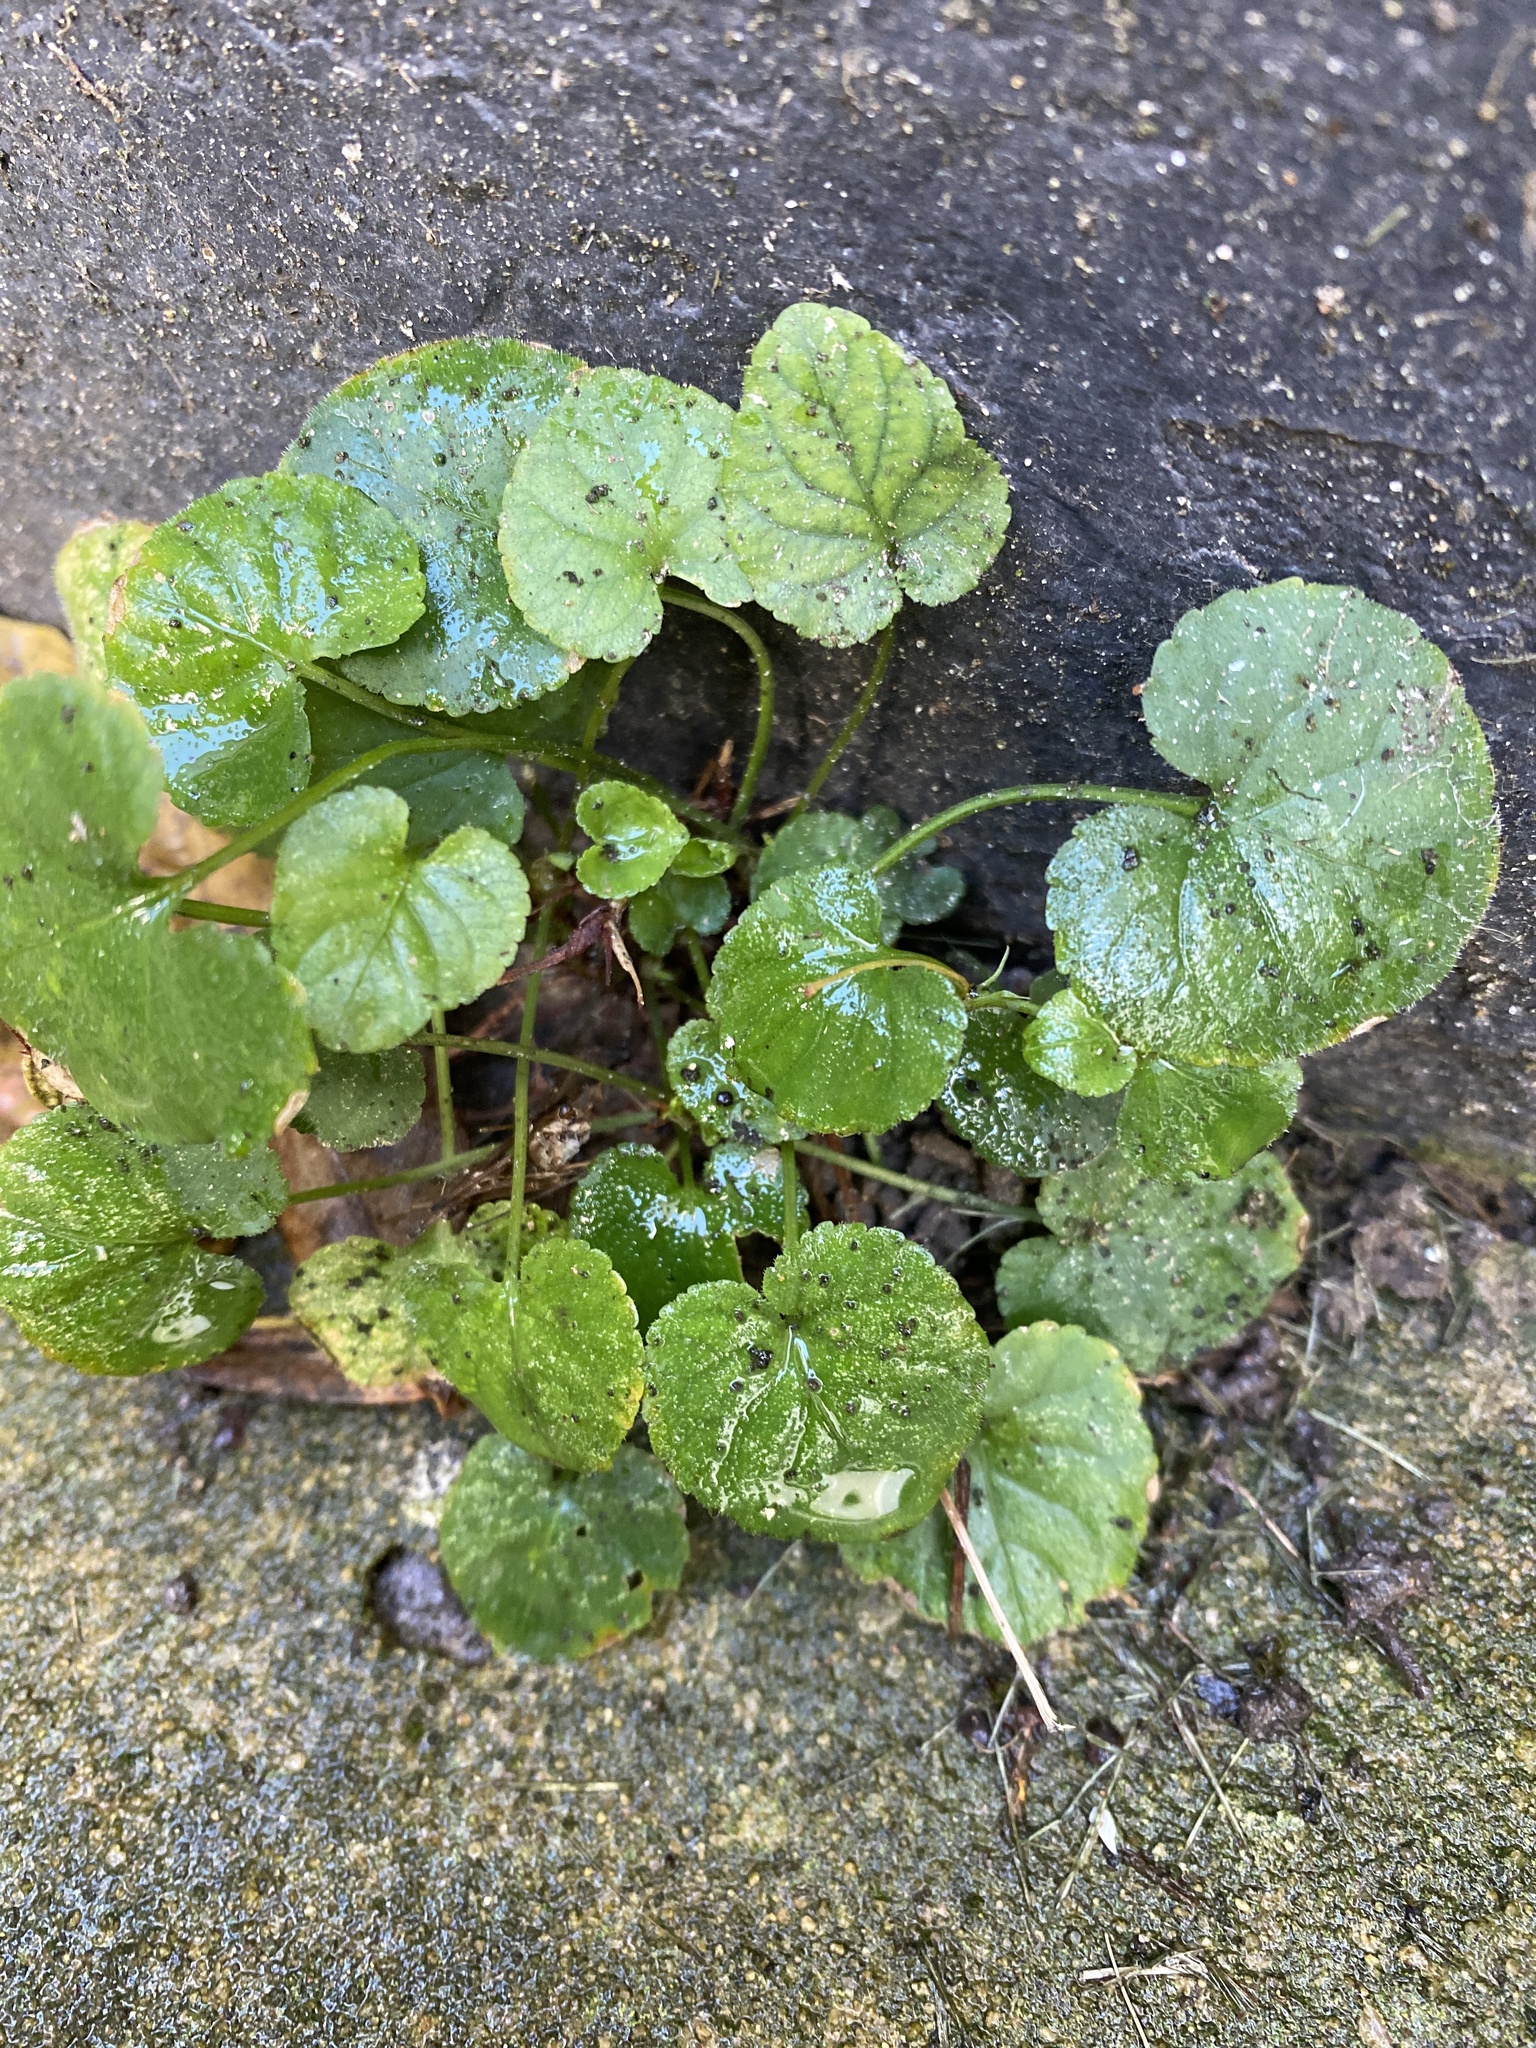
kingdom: Plantae
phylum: Tracheophyta
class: Magnoliopsida
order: Malpighiales
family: Violaceae
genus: Viola
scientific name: Viola odorata
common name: Sweet violet
